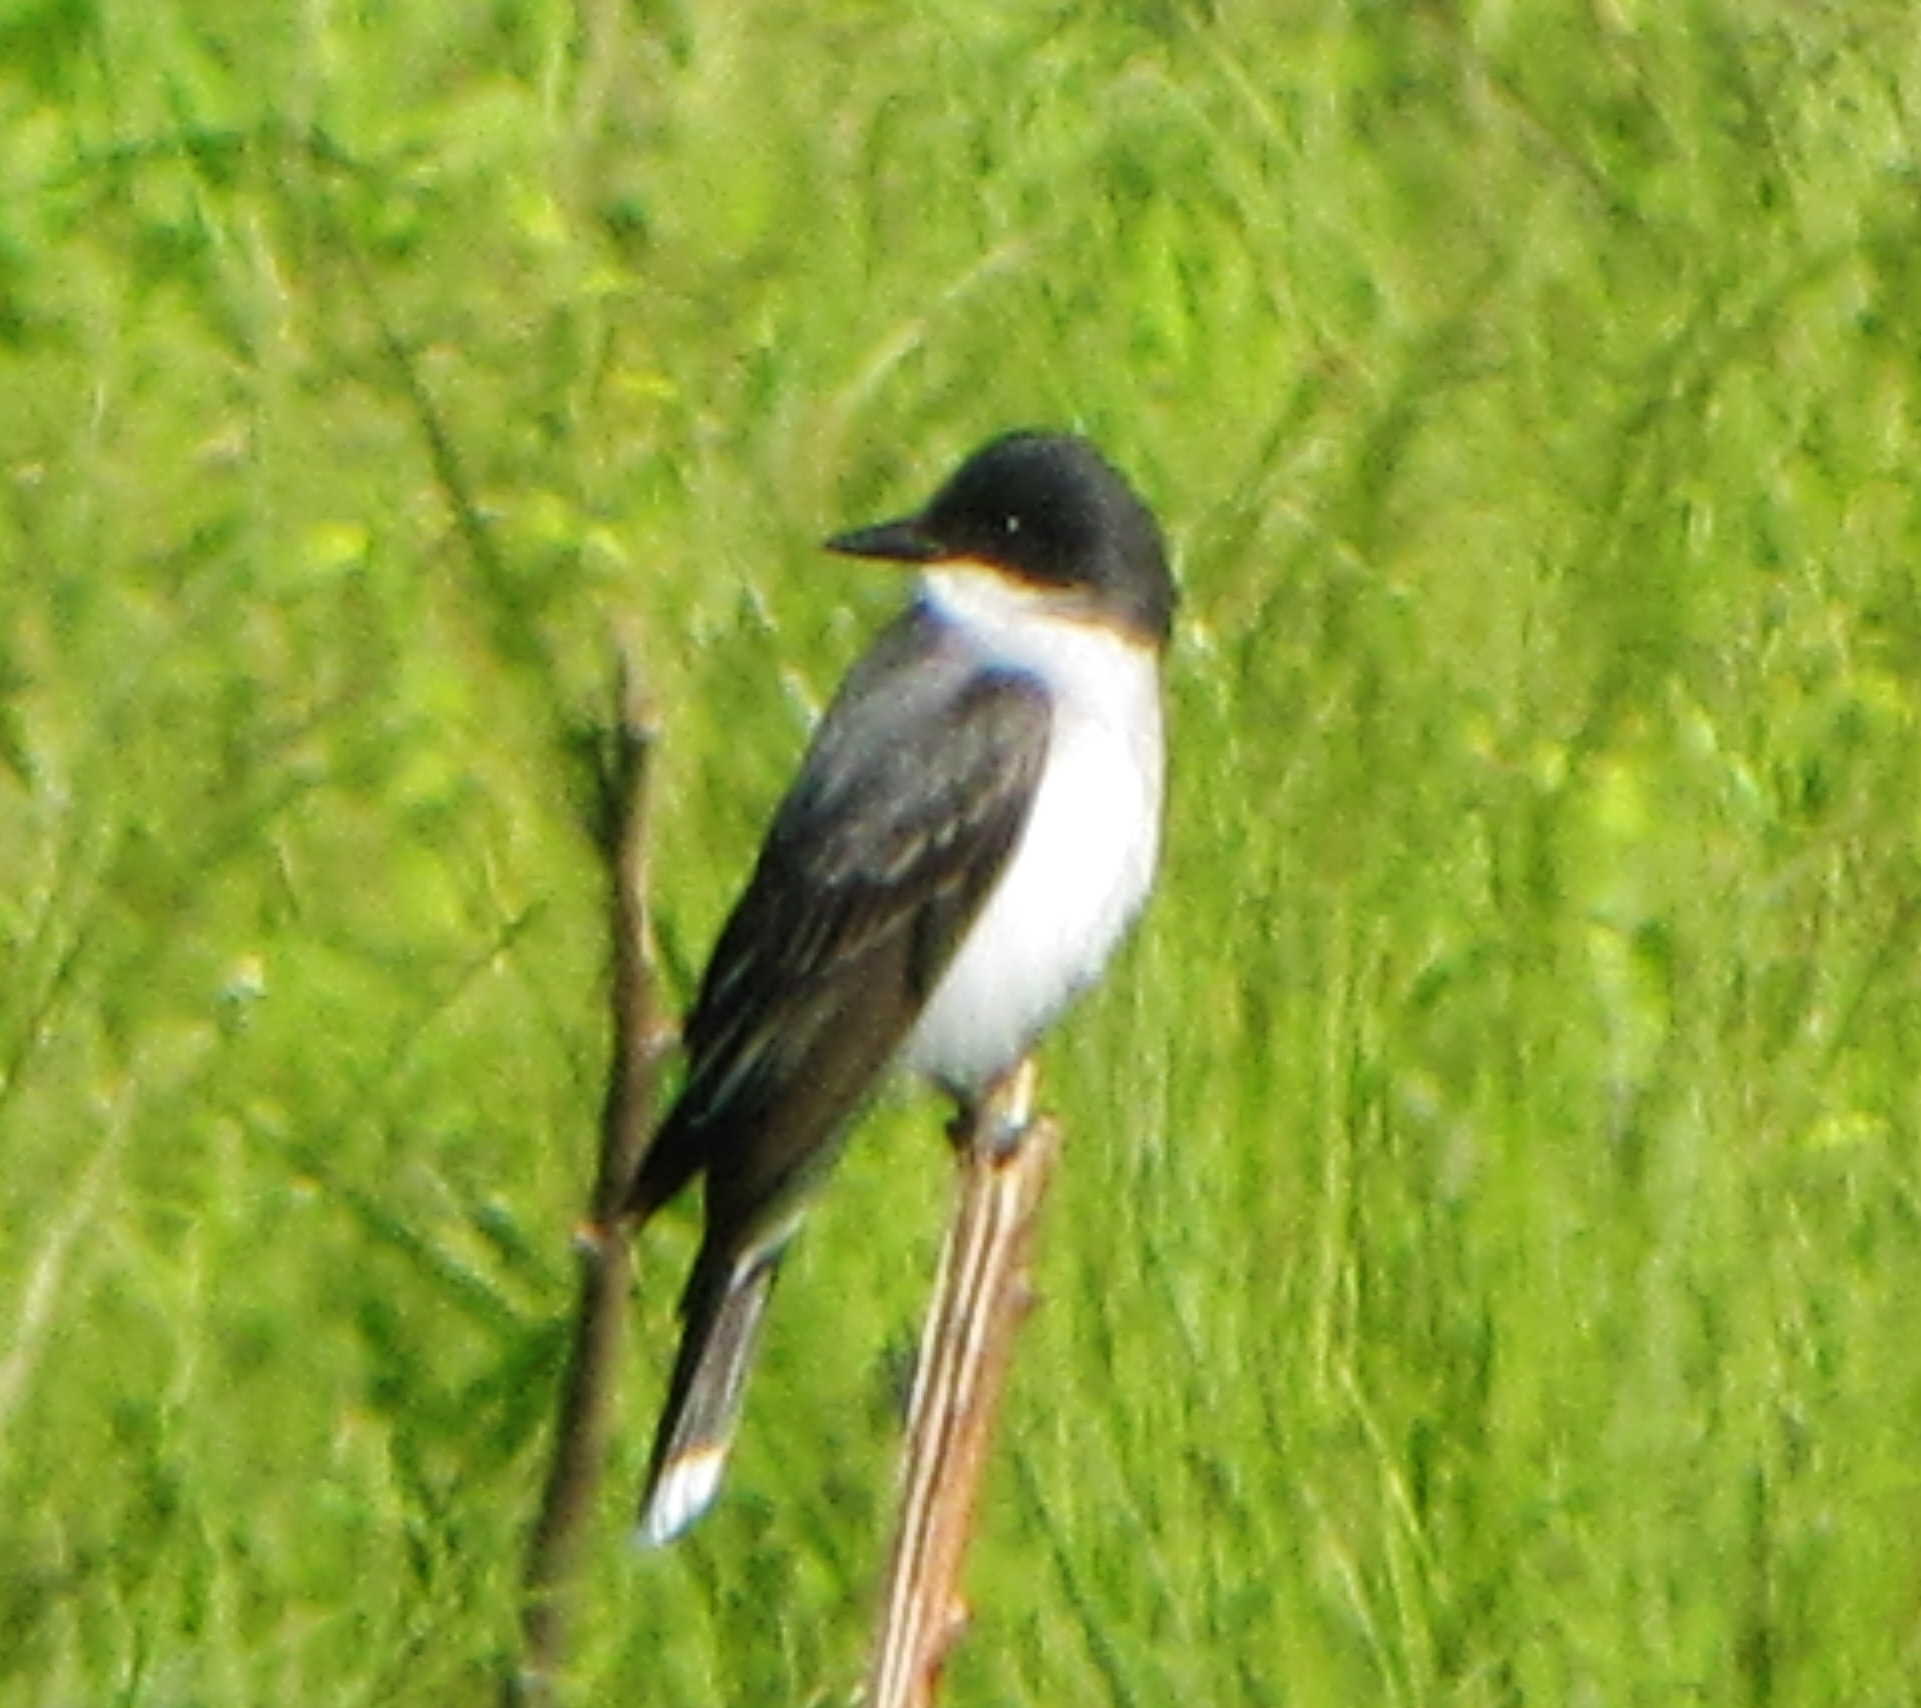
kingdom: Animalia
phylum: Chordata
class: Aves
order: Passeriformes
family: Tyrannidae
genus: Tyrannus
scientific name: Tyrannus tyrannus
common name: Eastern kingbird
